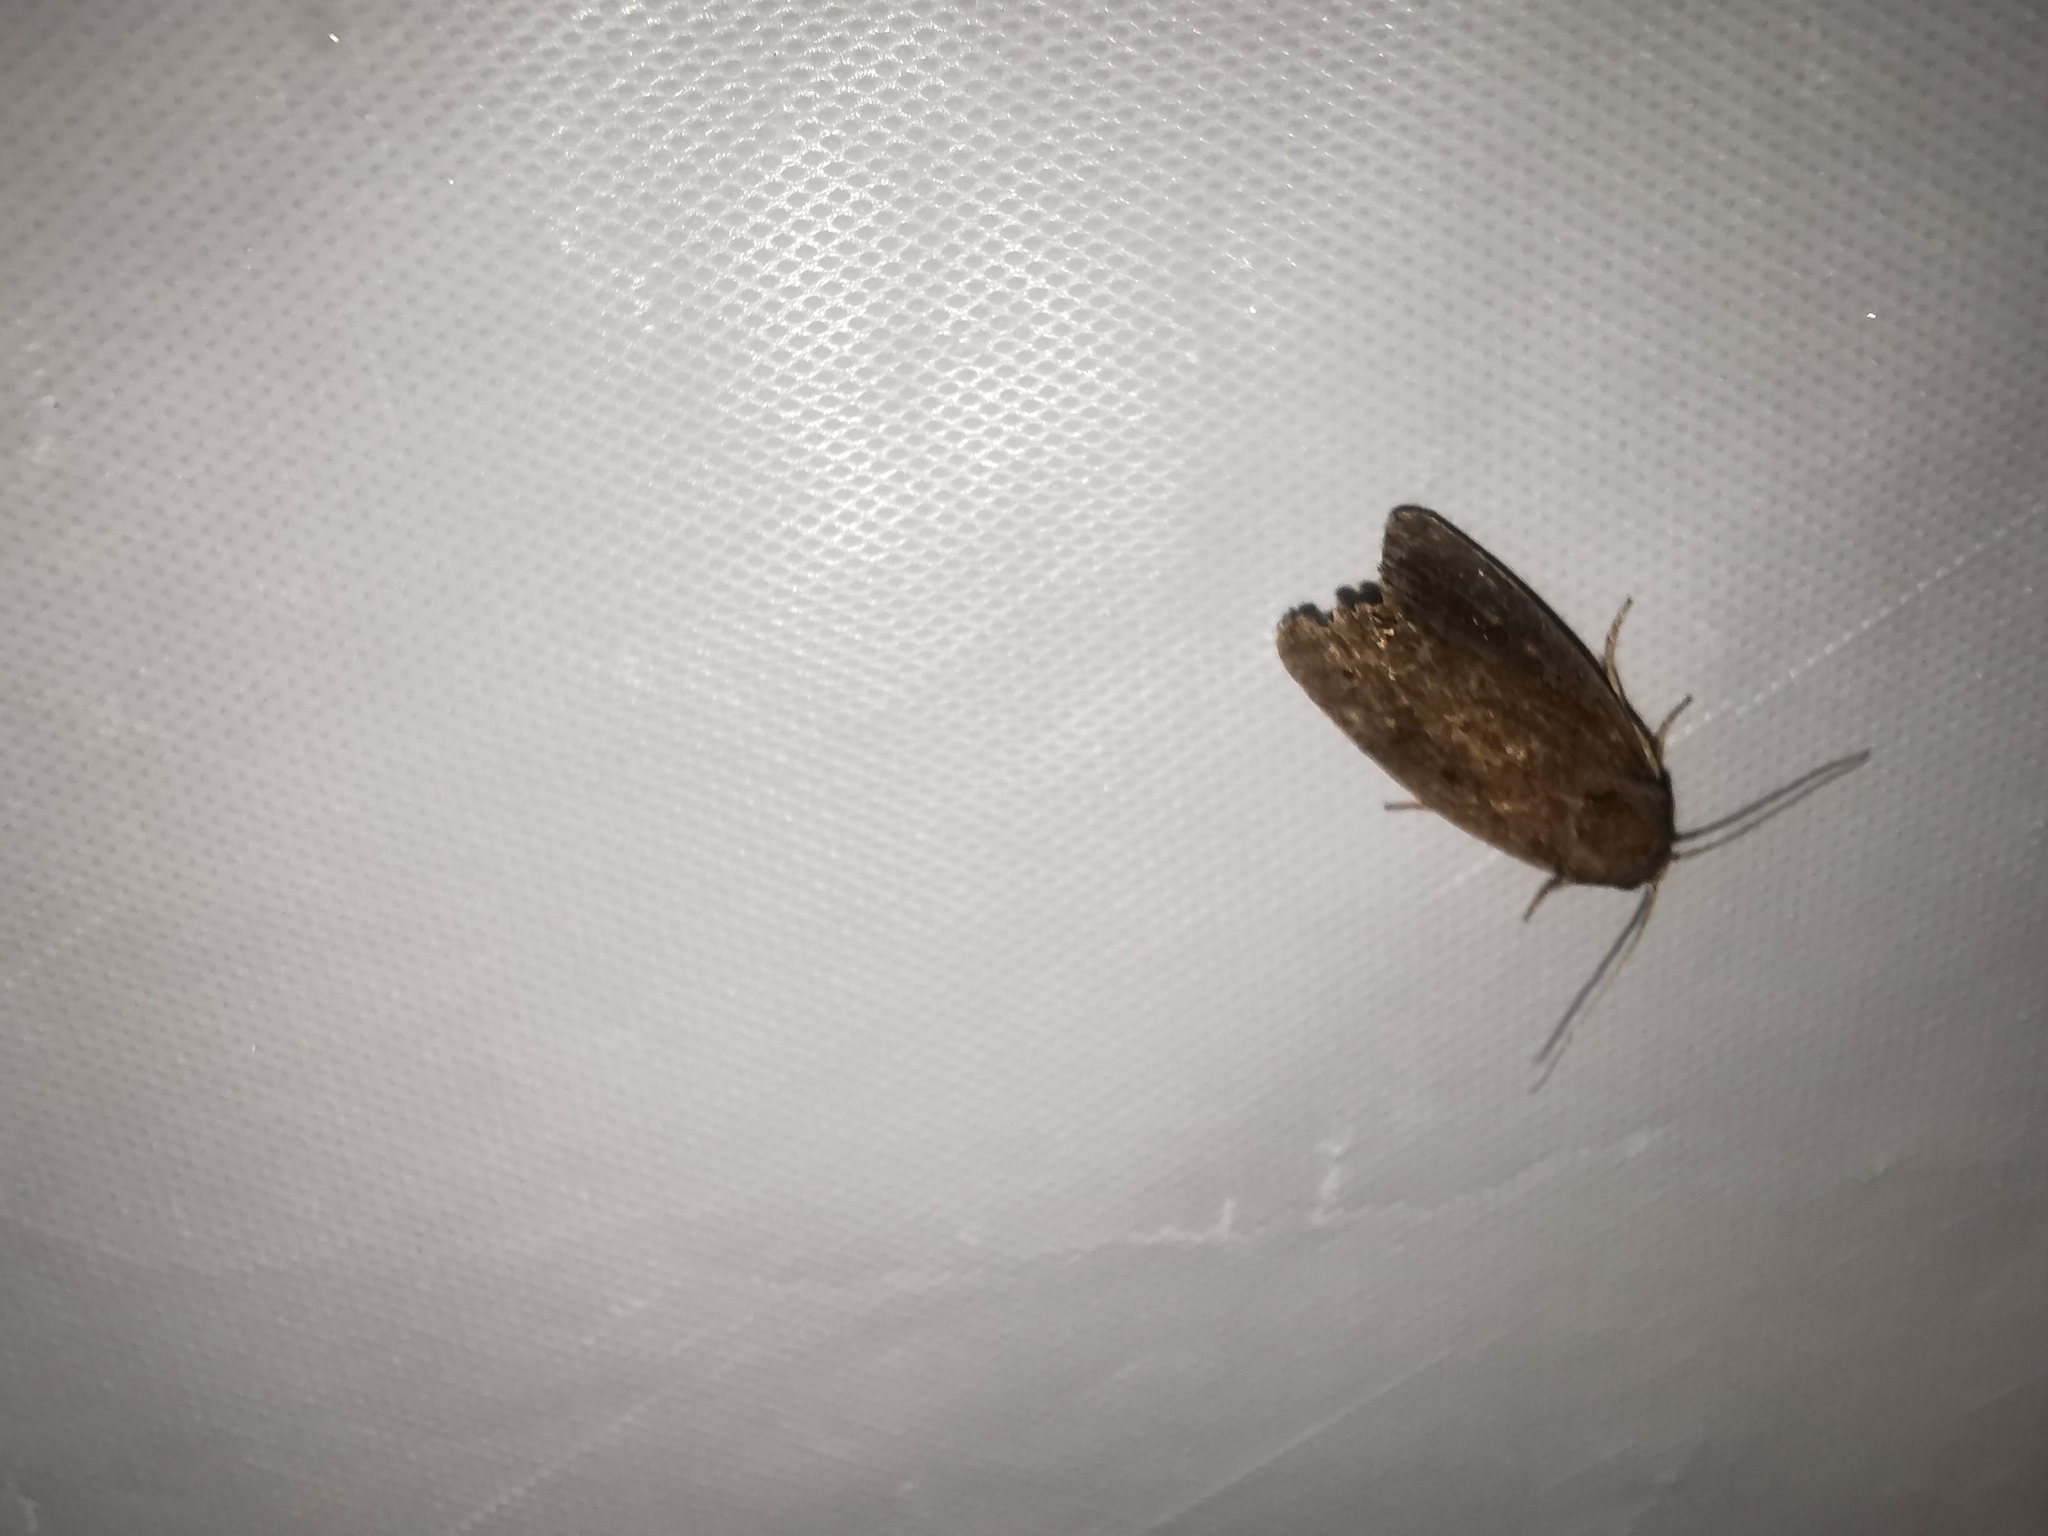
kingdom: Animalia
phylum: Arthropoda
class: Insecta
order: Lepidoptera
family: Noctuidae
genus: Athetis
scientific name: Athetis hospes
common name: Porter's rustic
